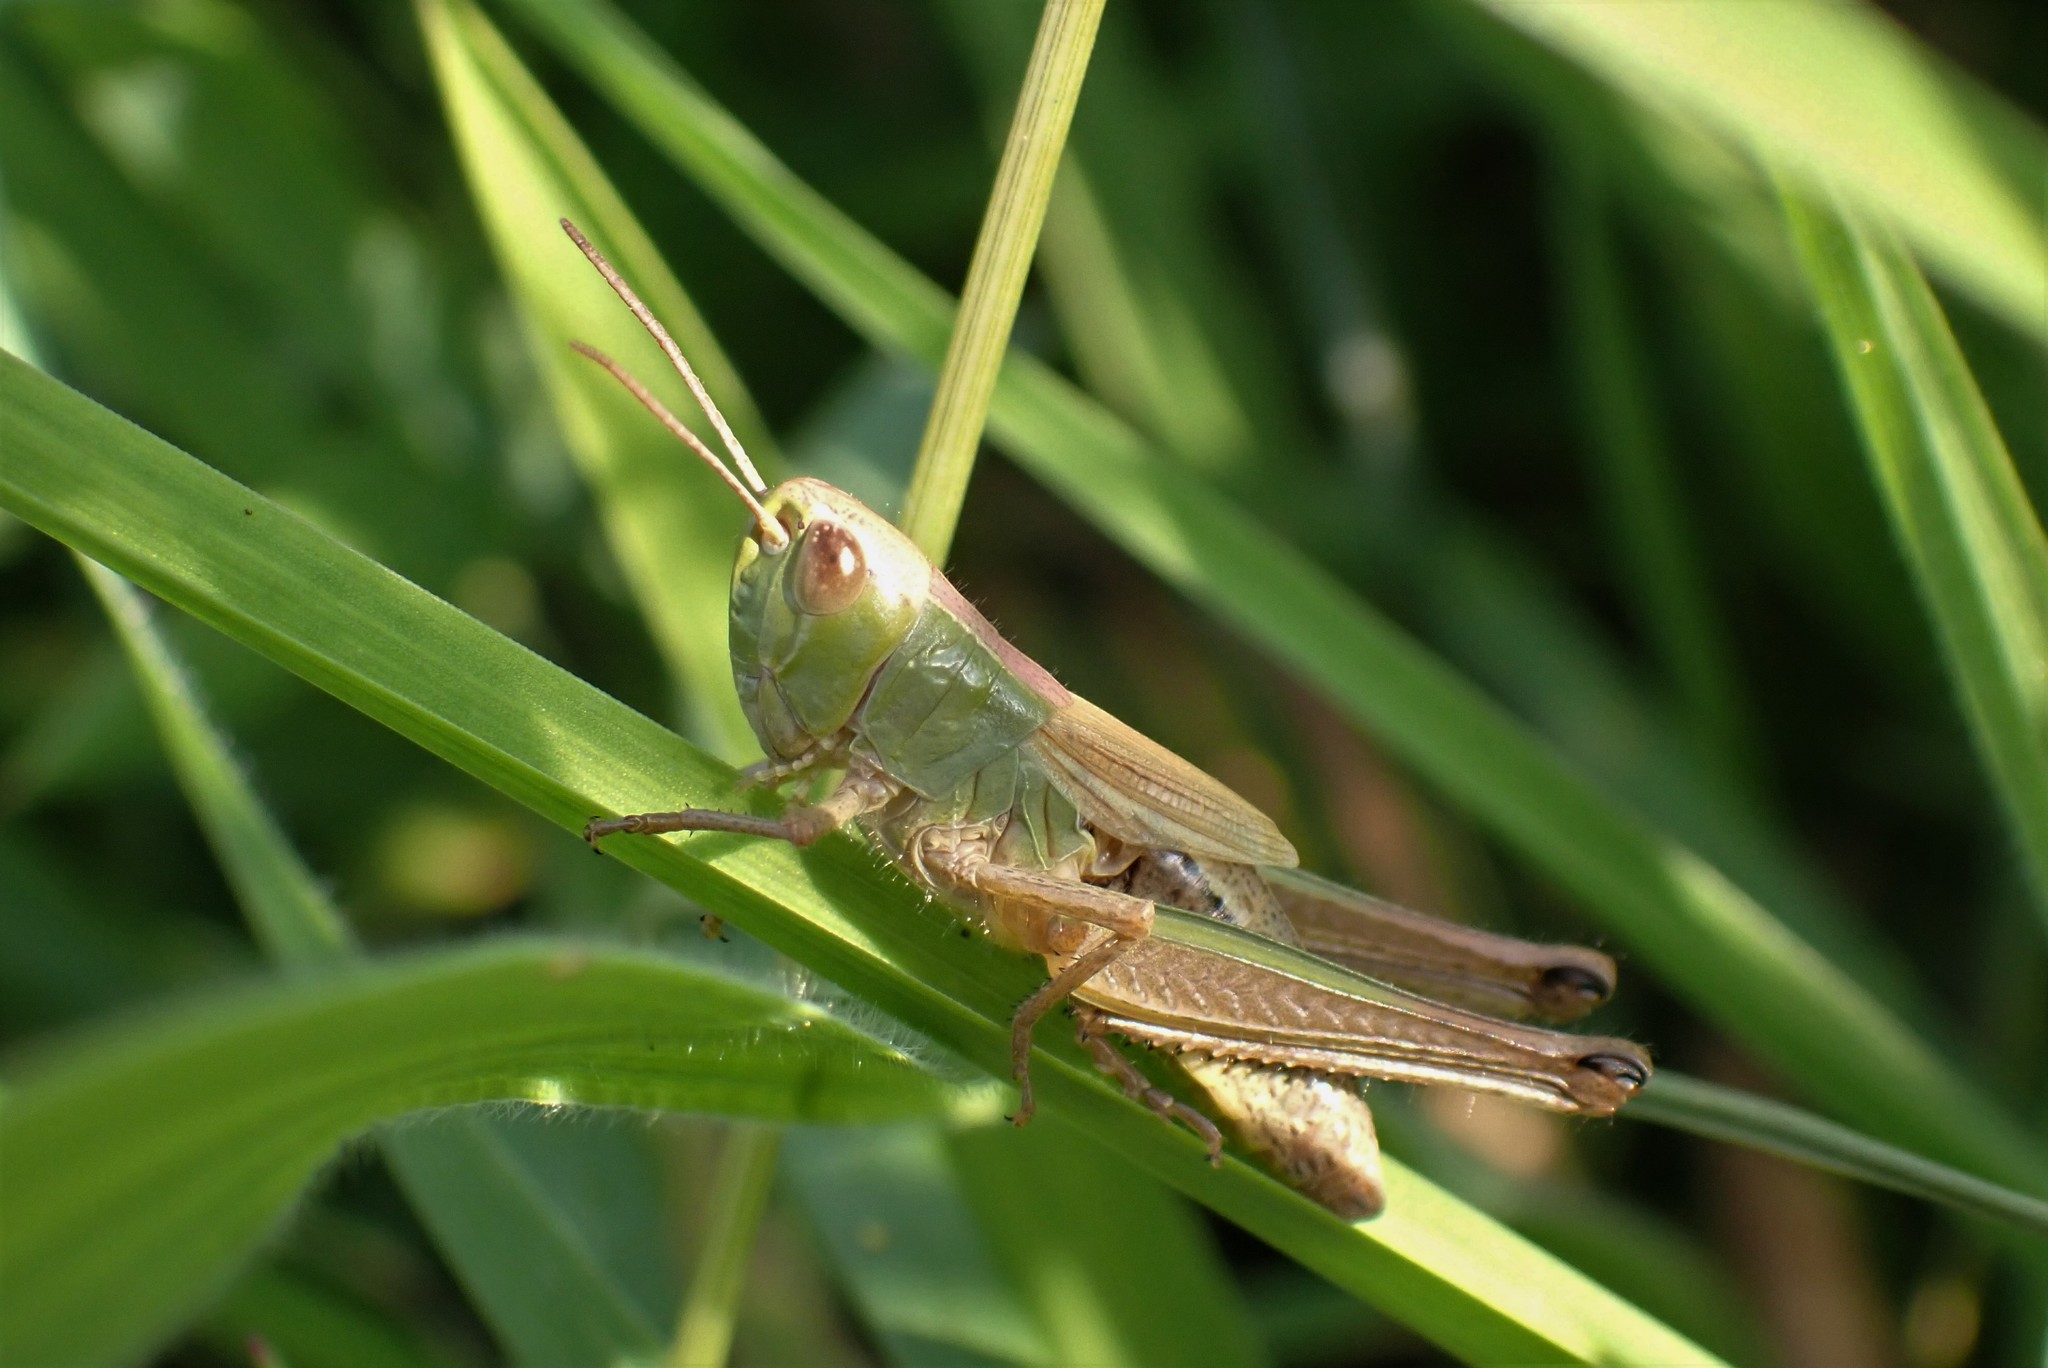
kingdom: Animalia
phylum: Arthropoda
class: Insecta
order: Orthoptera
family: Acrididae
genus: Pseudochorthippus
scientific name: Pseudochorthippus parallelus
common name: Meadow grasshopper
